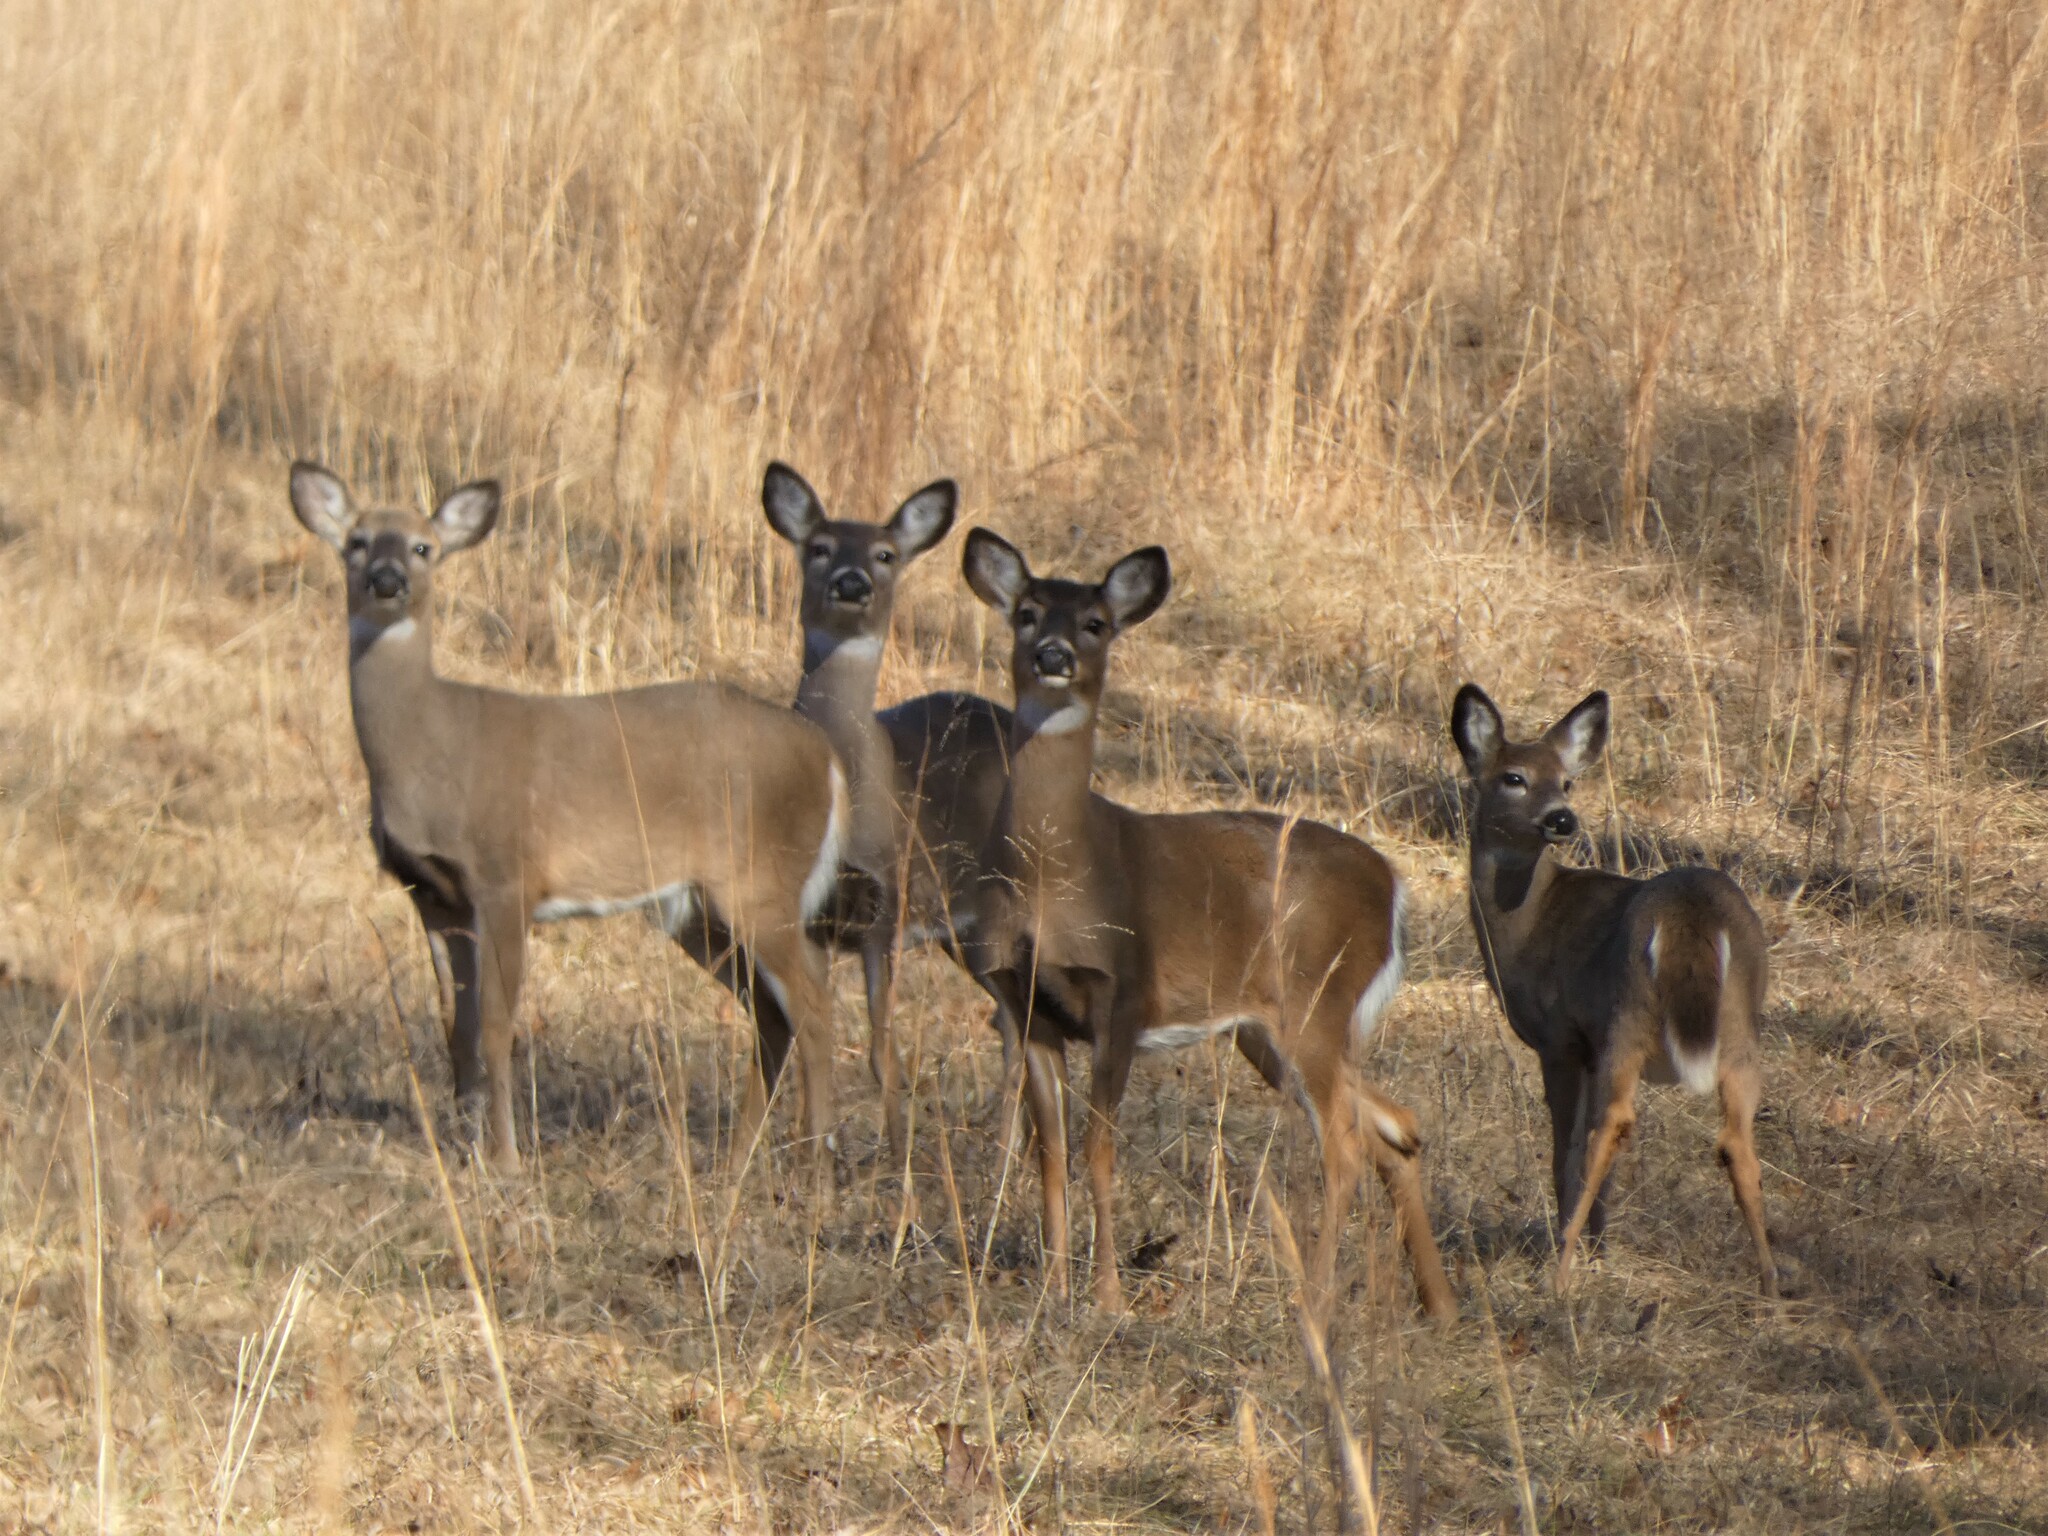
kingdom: Animalia
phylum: Chordata
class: Mammalia
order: Artiodactyla
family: Cervidae
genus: Odocoileus
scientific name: Odocoileus virginianus
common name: White-tailed deer
